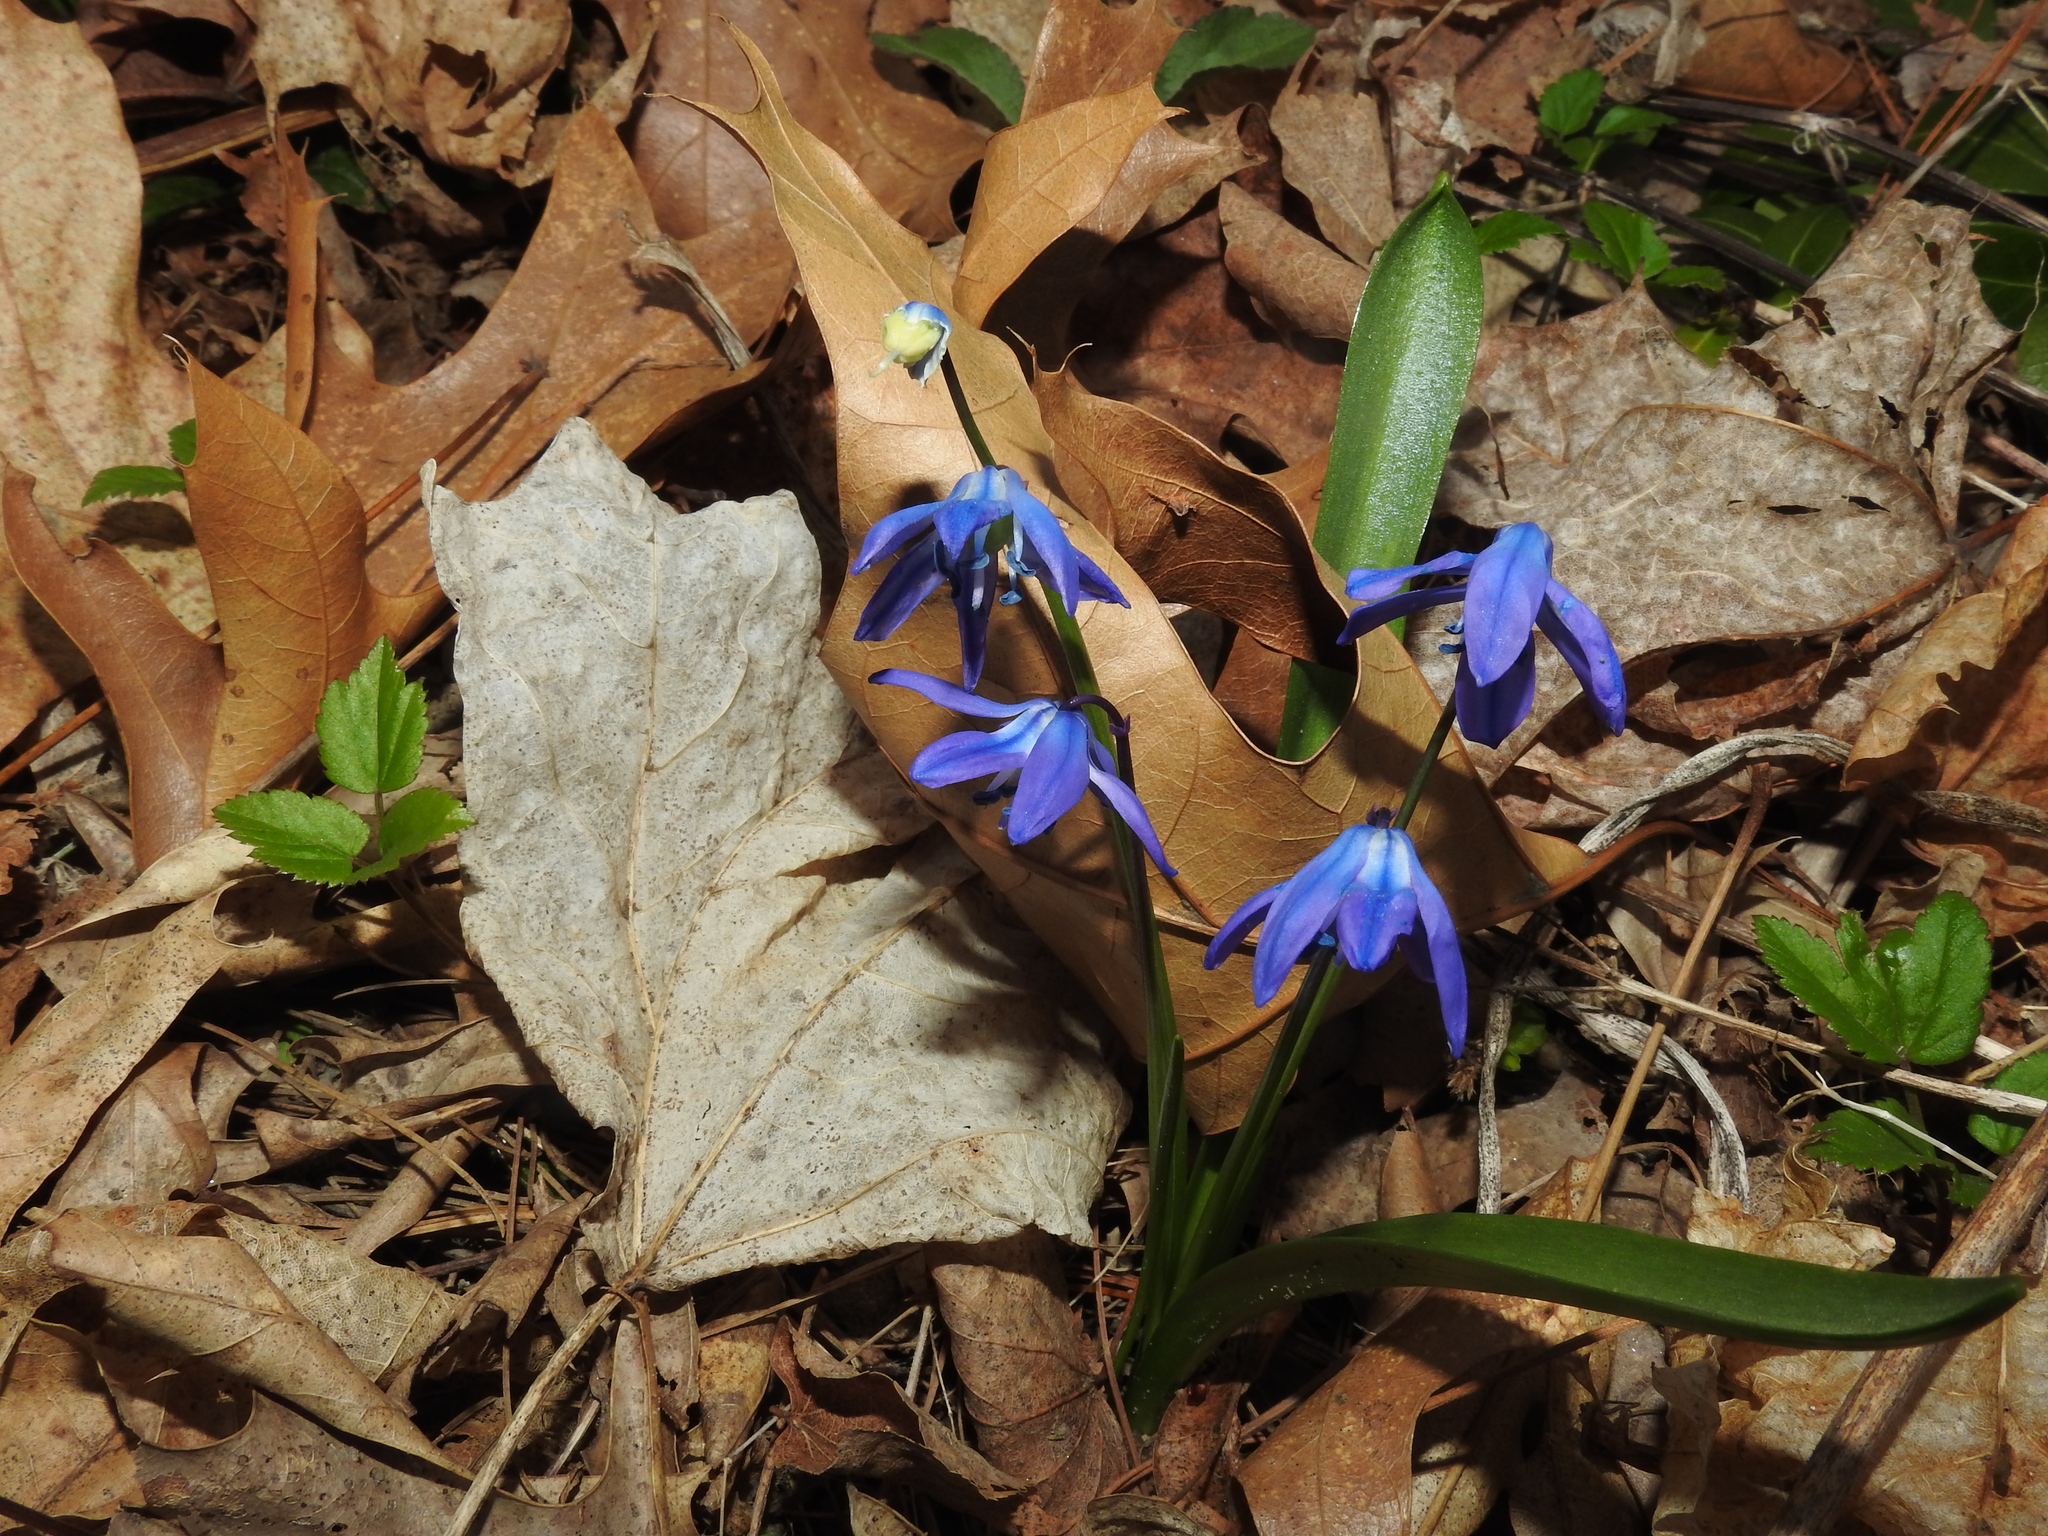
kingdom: Plantae
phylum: Tracheophyta
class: Liliopsida
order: Asparagales
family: Asparagaceae
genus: Scilla
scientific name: Scilla siberica
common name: Siberian squill
